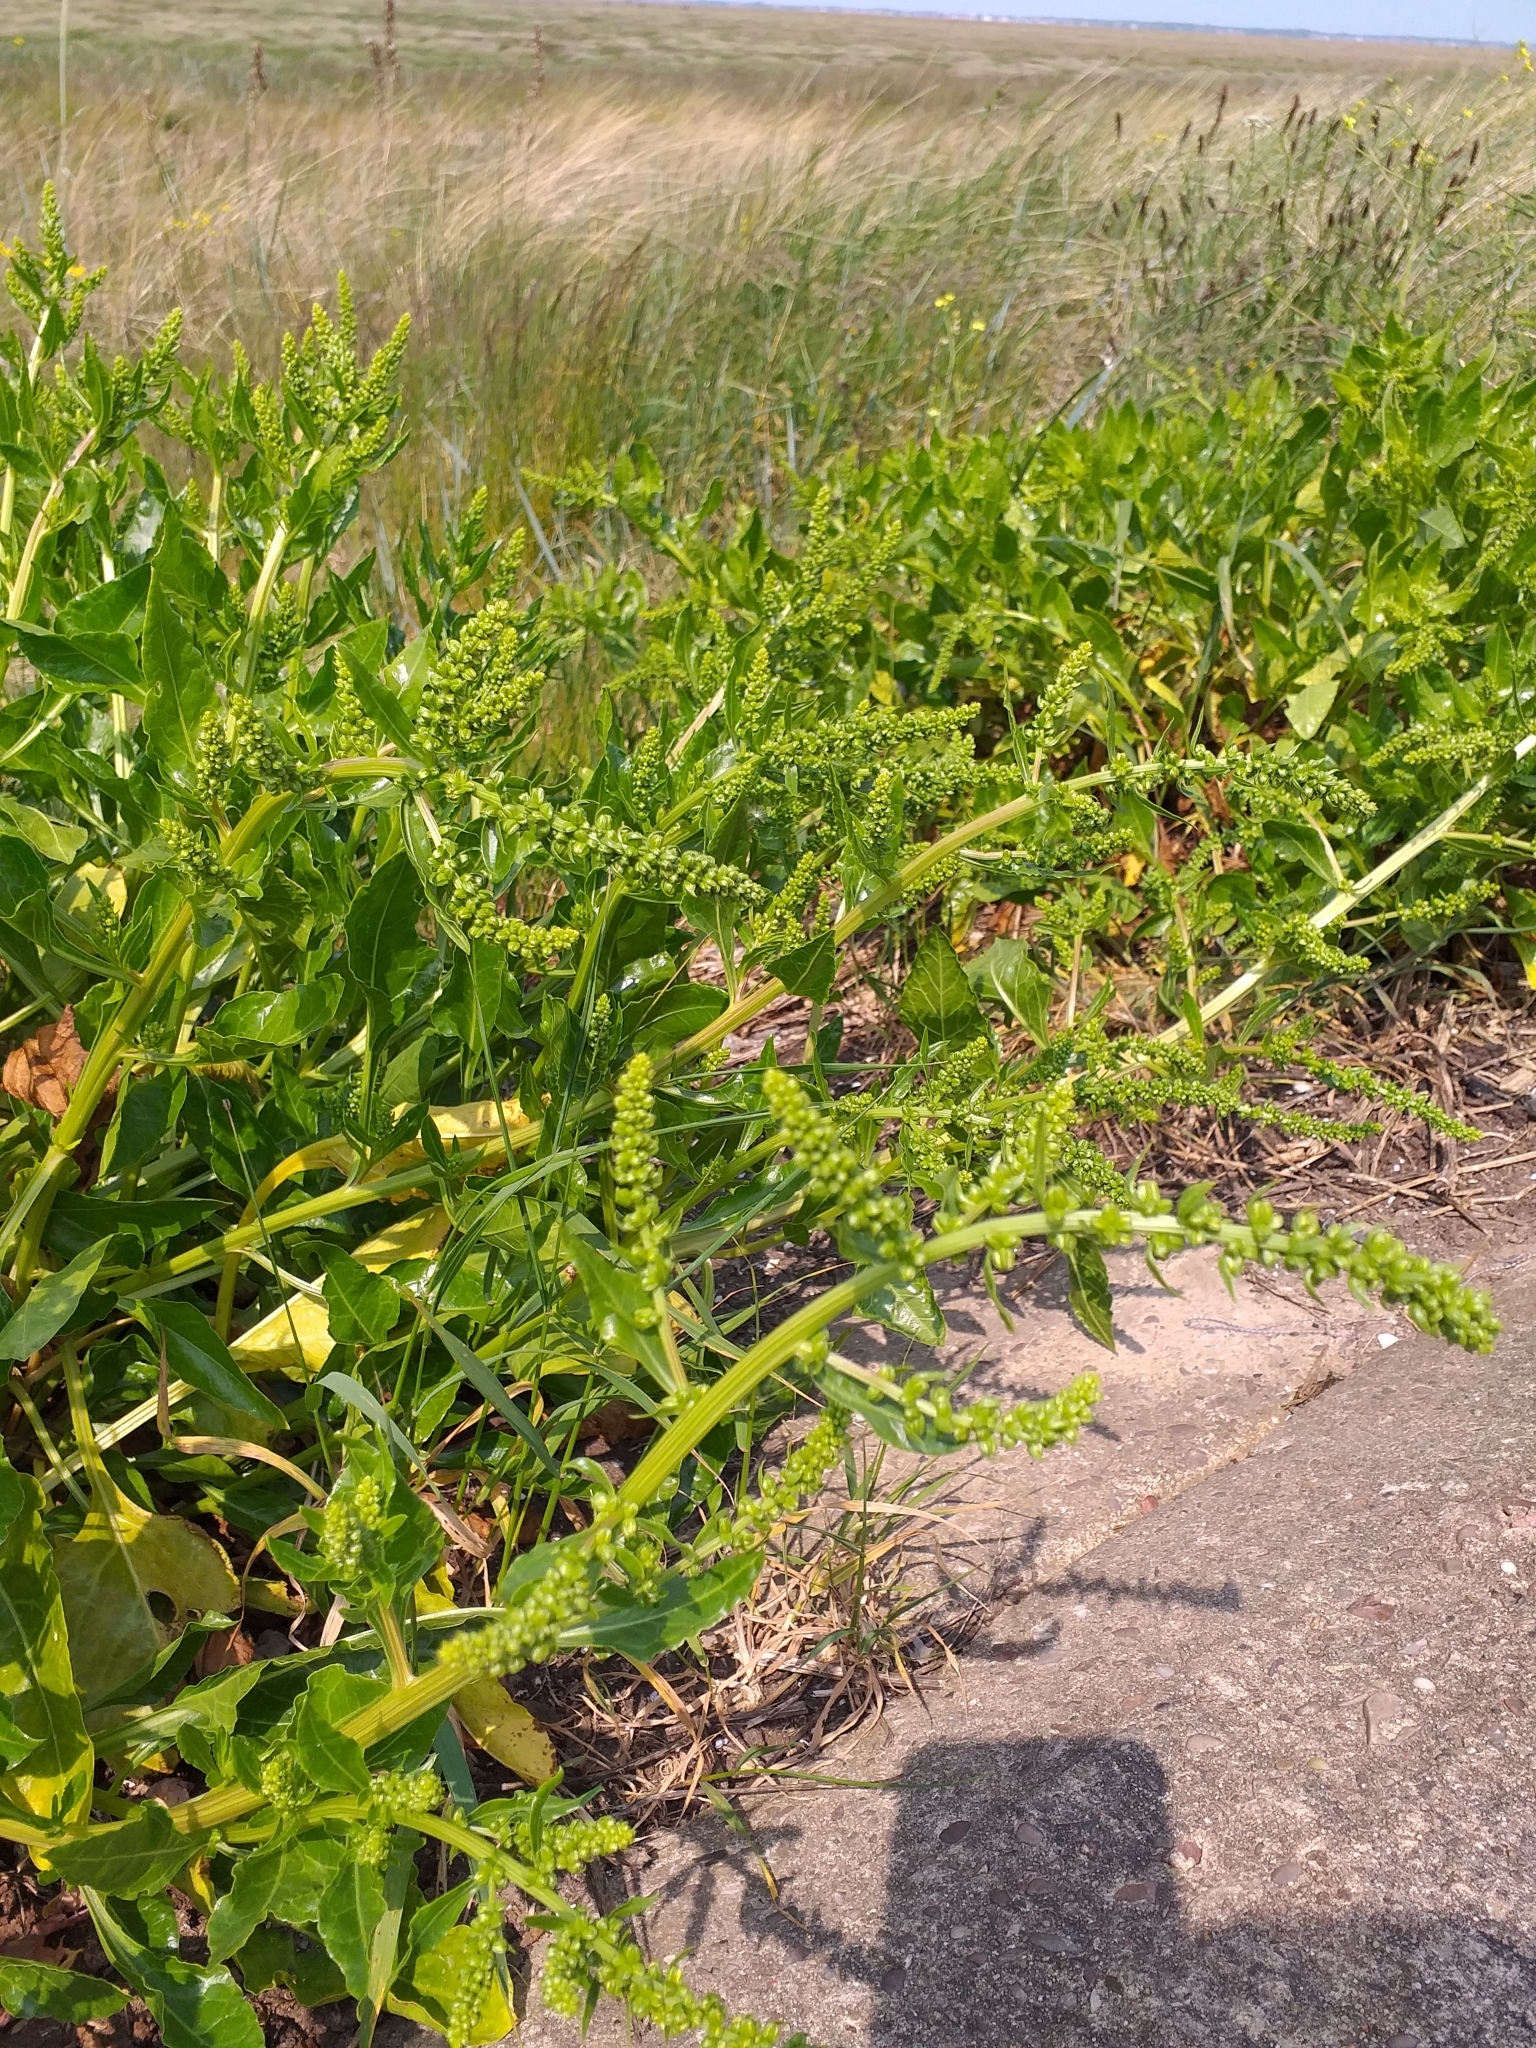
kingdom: Plantae
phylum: Tracheophyta
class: Magnoliopsida
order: Caryophyllales
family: Amaranthaceae
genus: Beta
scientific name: Beta vulgaris
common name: Beet
